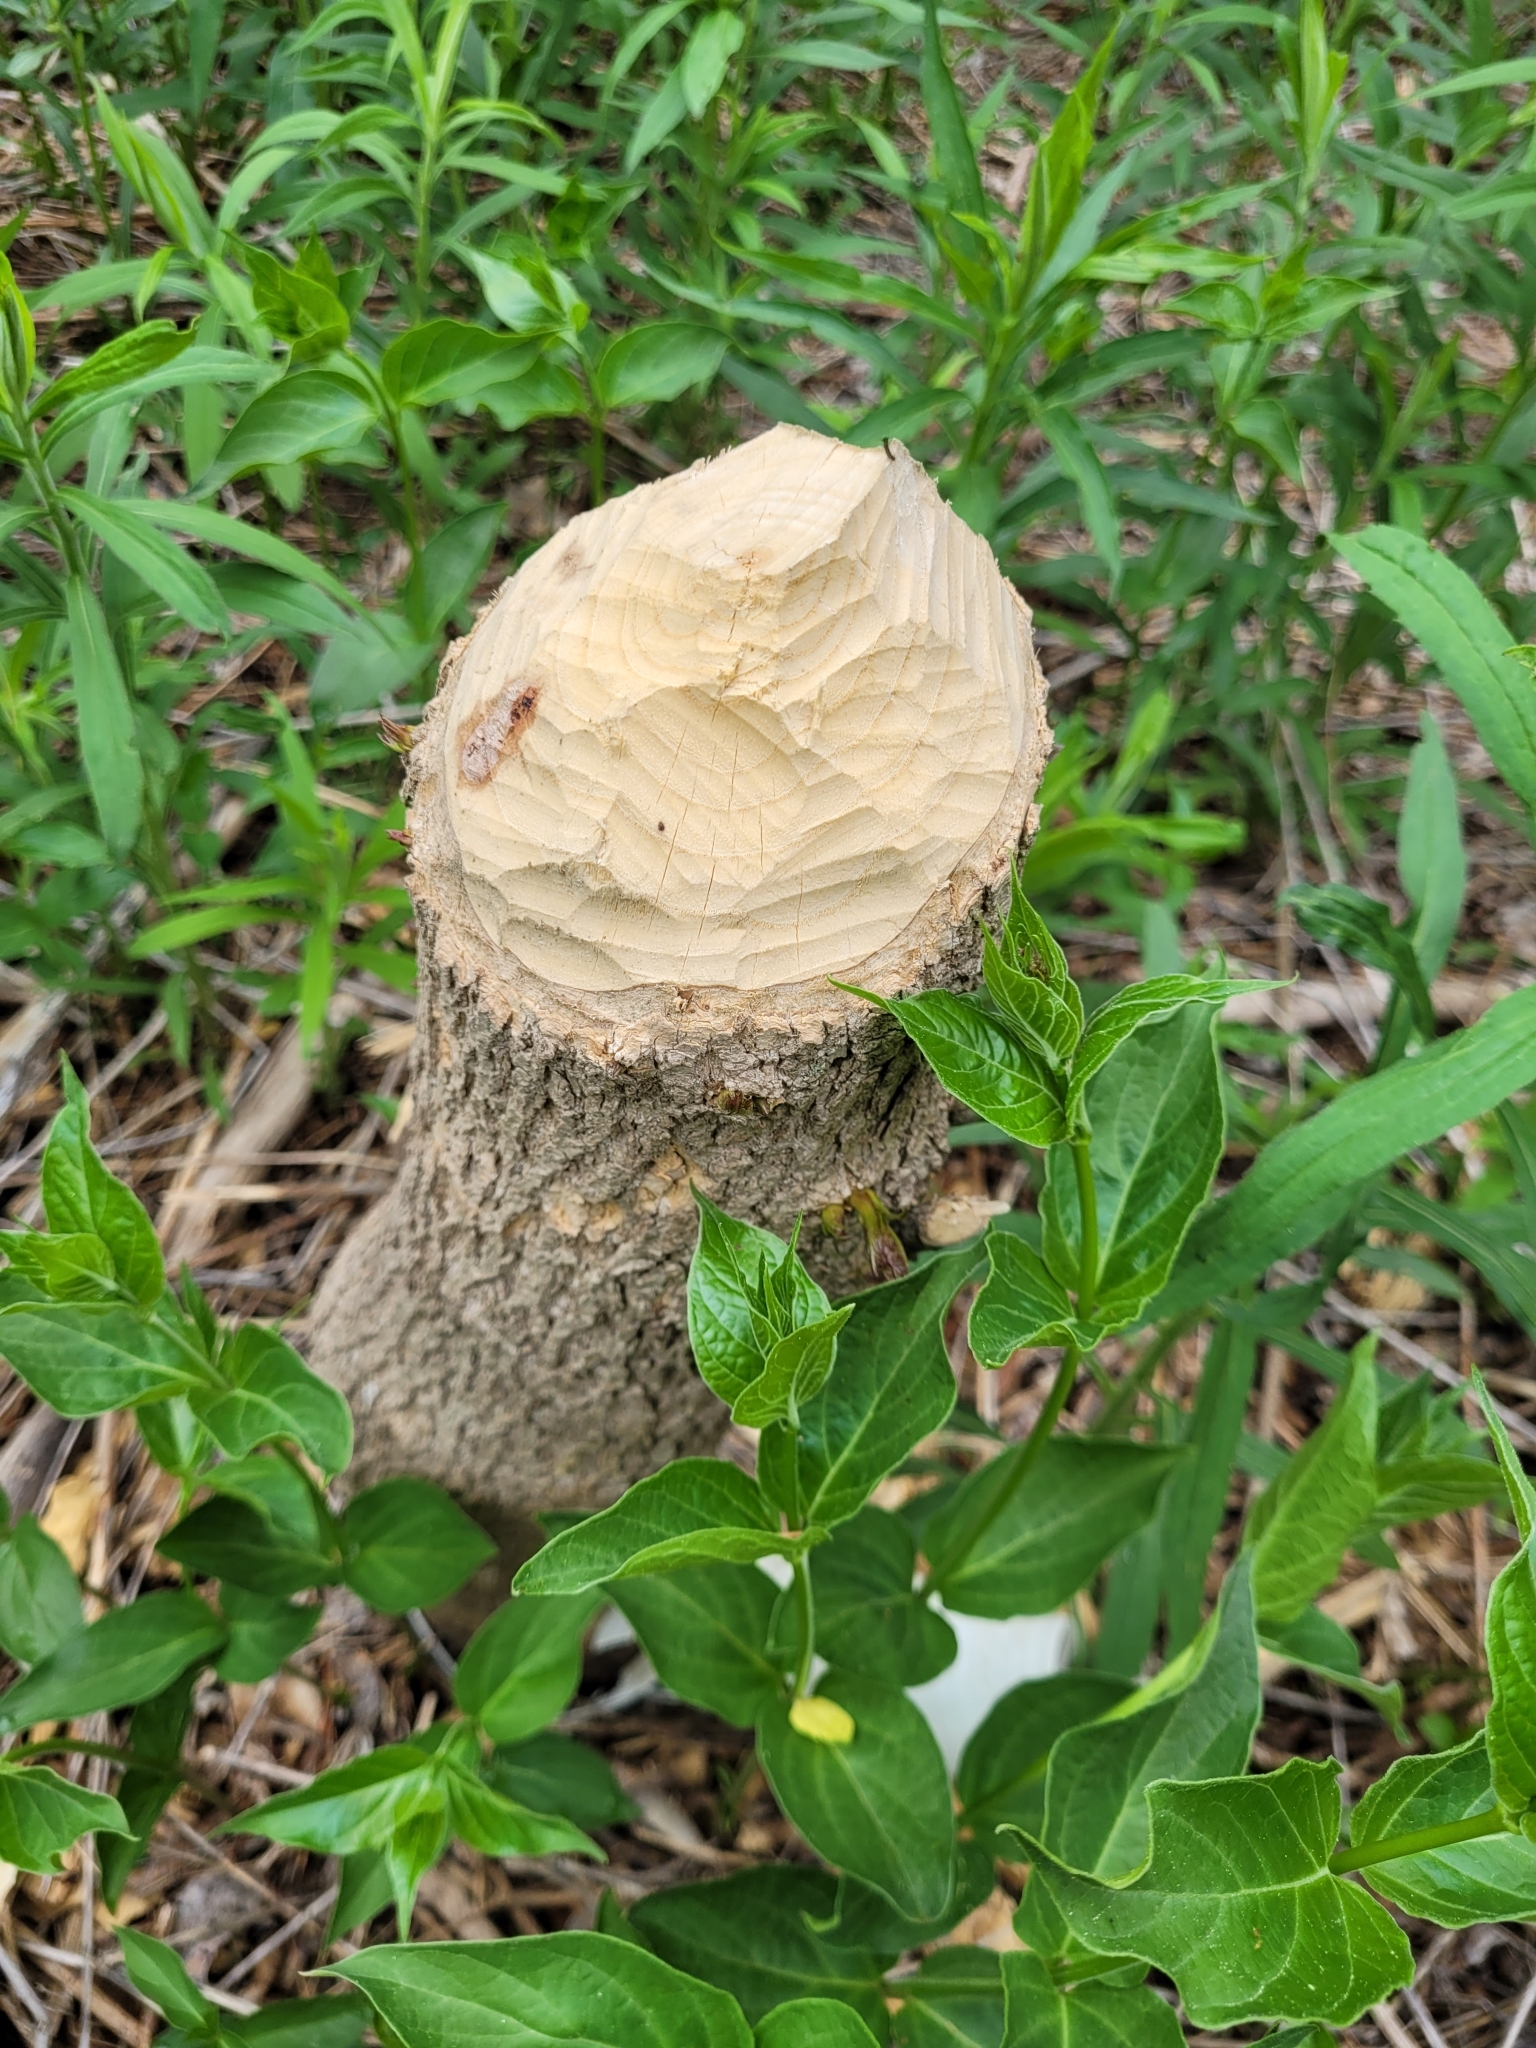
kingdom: Animalia
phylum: Chordata
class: Mammalia
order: Rodentia
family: Castoridae
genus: Castor
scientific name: Castor canadensis
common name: American beaver
